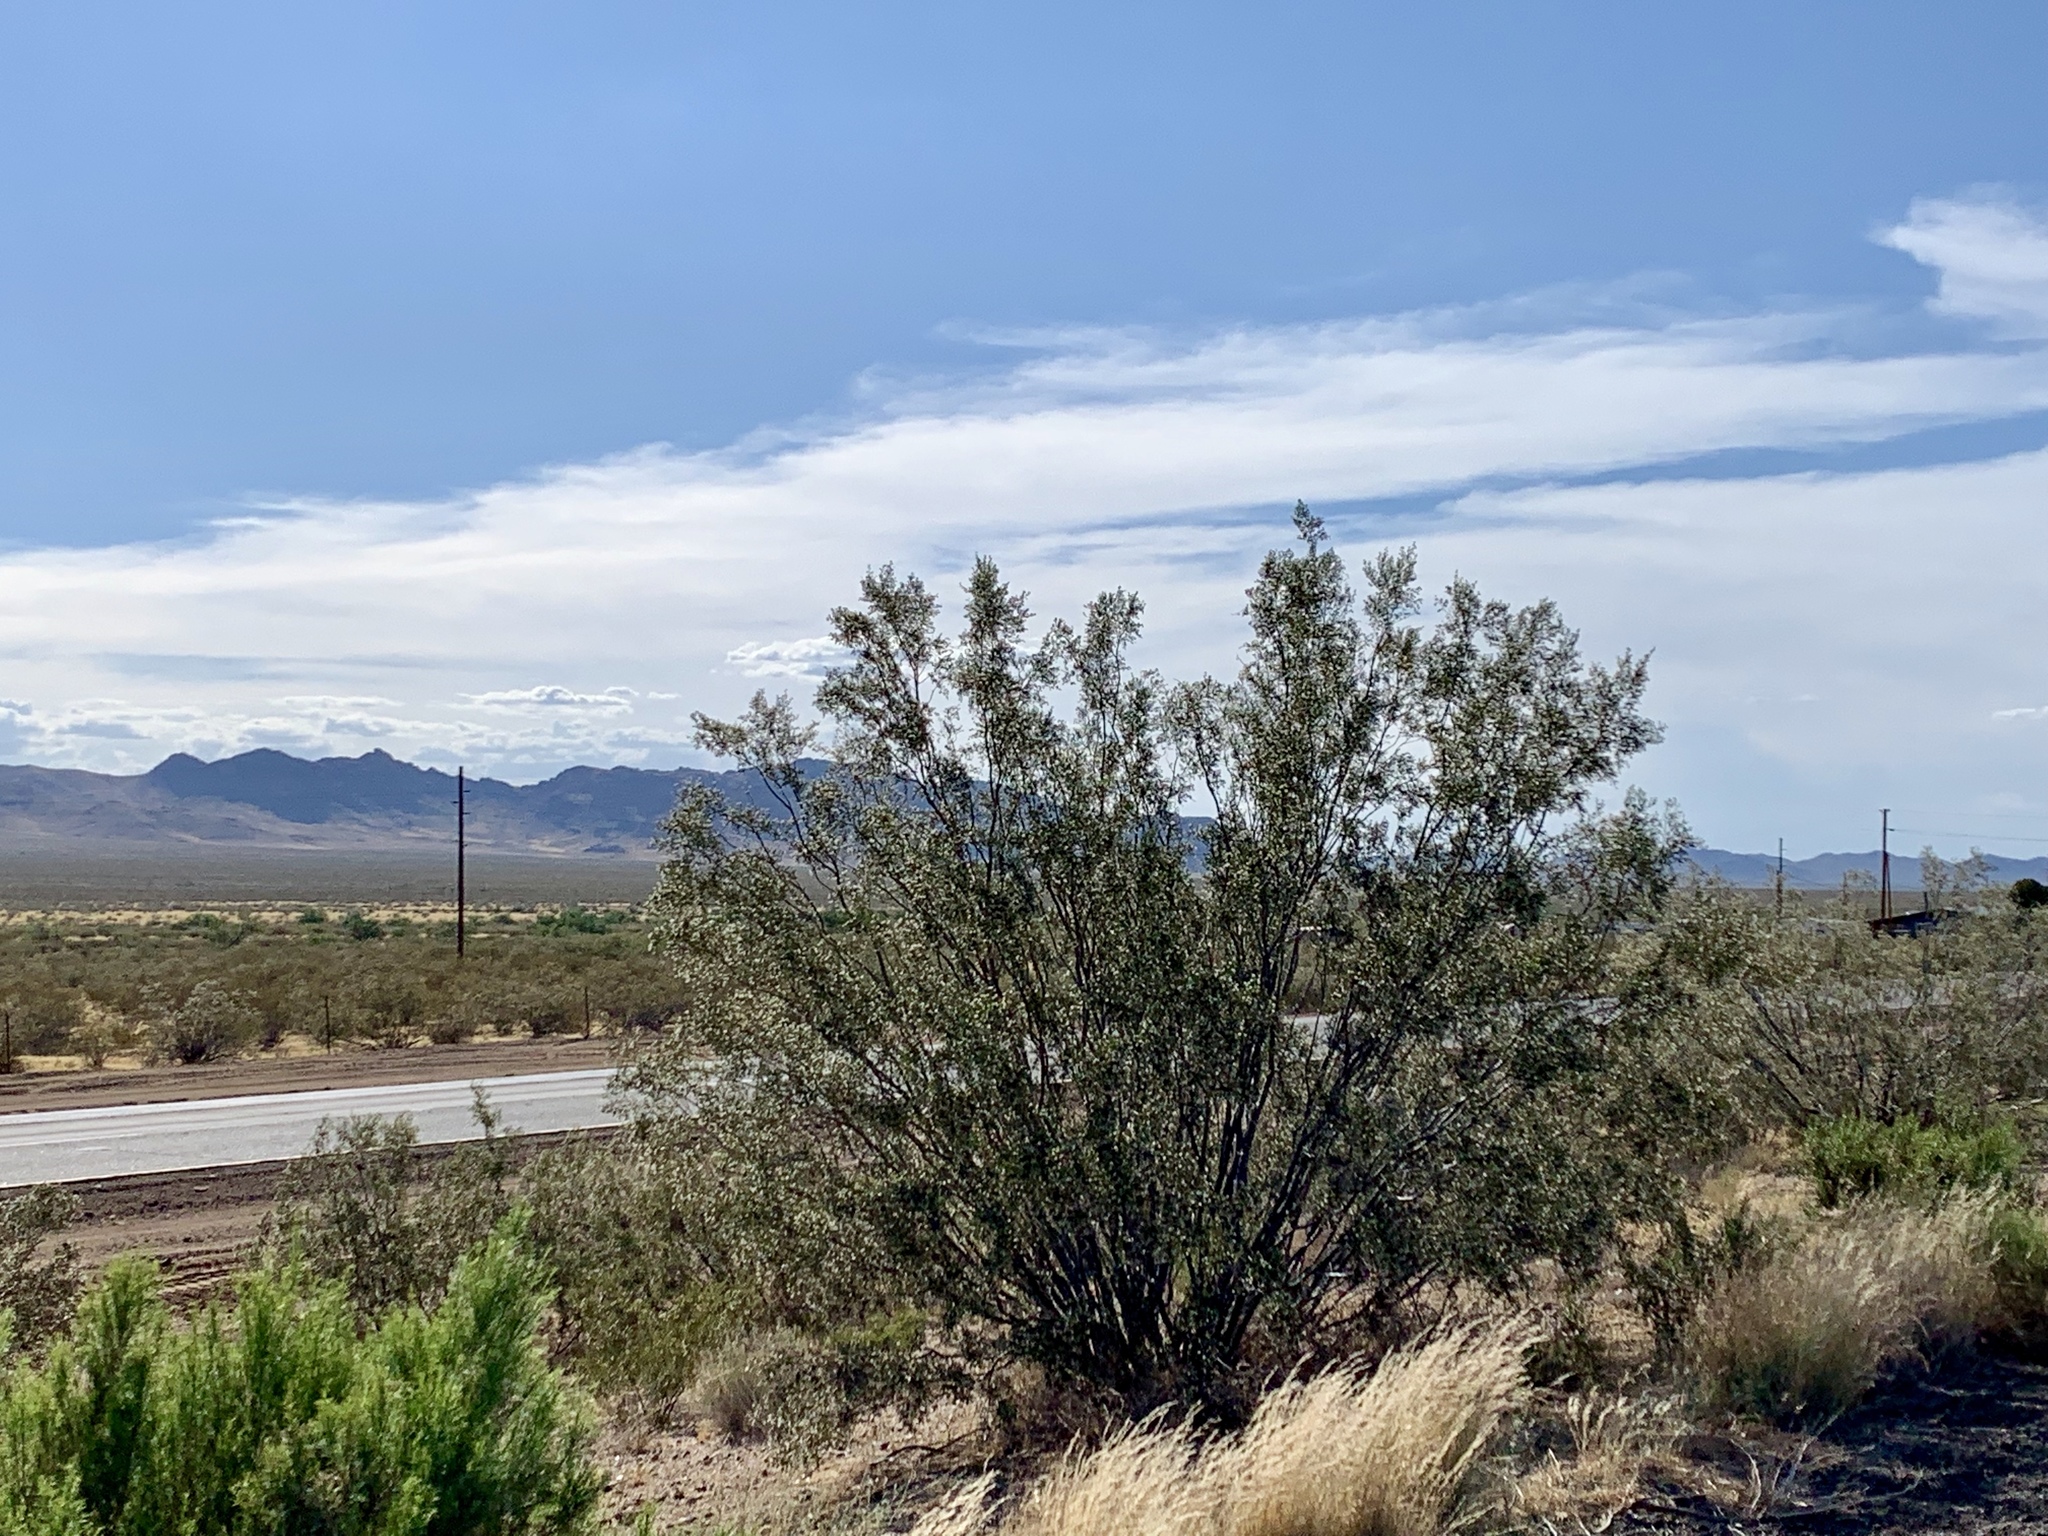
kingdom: Plantae
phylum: Tracheophyta
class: Magnoliopsida
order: Zygophyllales
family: Zygophyllaceae
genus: Larrea
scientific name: Larrea tridentata
